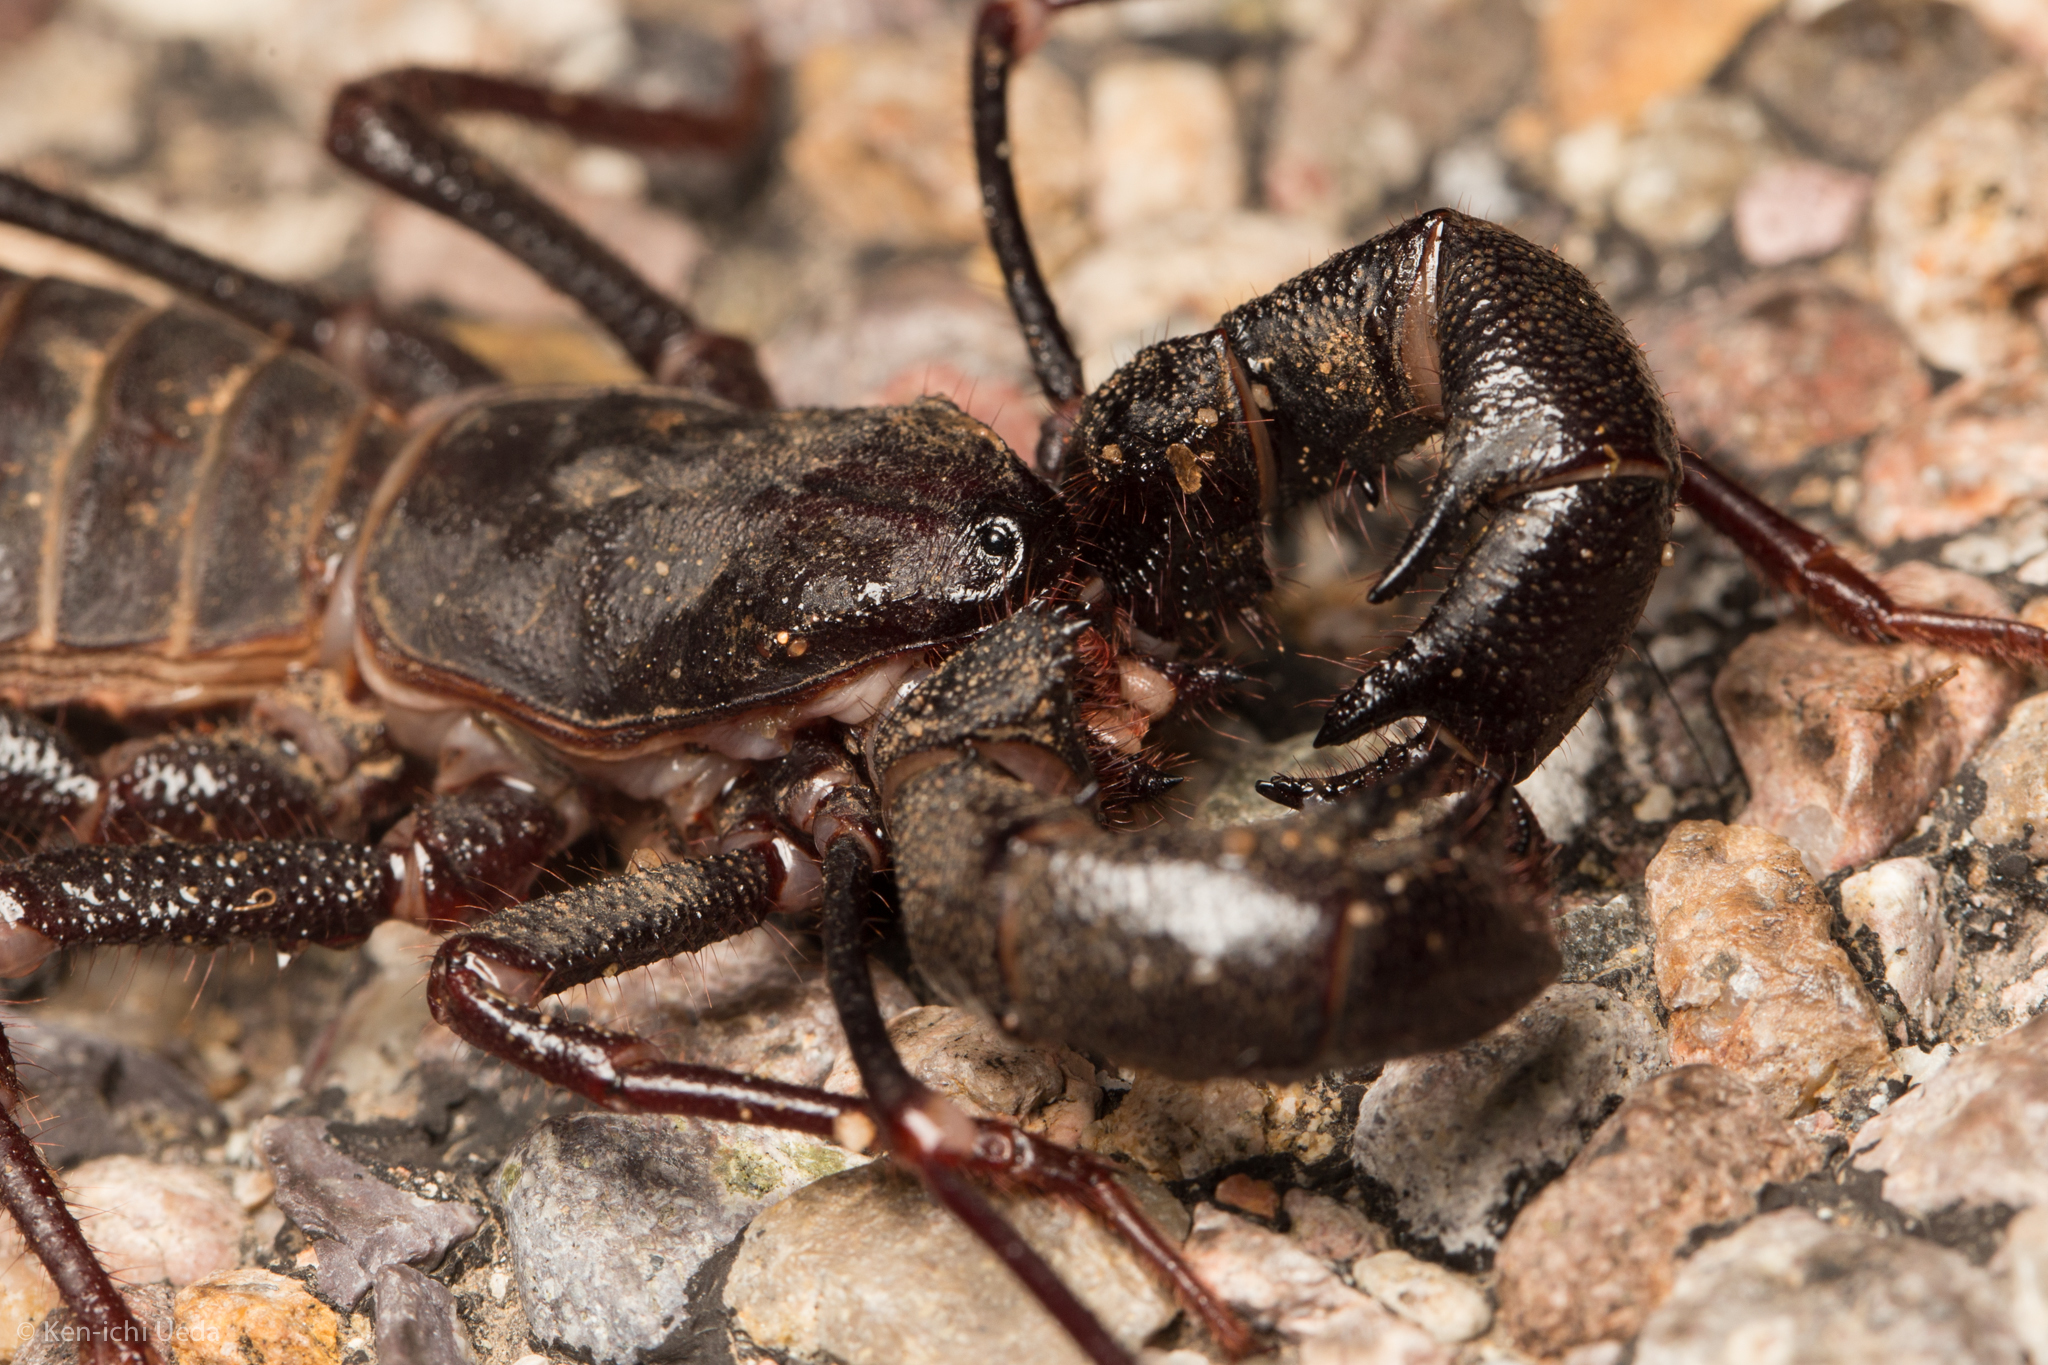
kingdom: Animalia
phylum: Arthropoda
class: Arachnida
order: Uropygi
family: Thelyphonidae
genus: Mastigoproctus
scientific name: Mastigoproctus tohono
